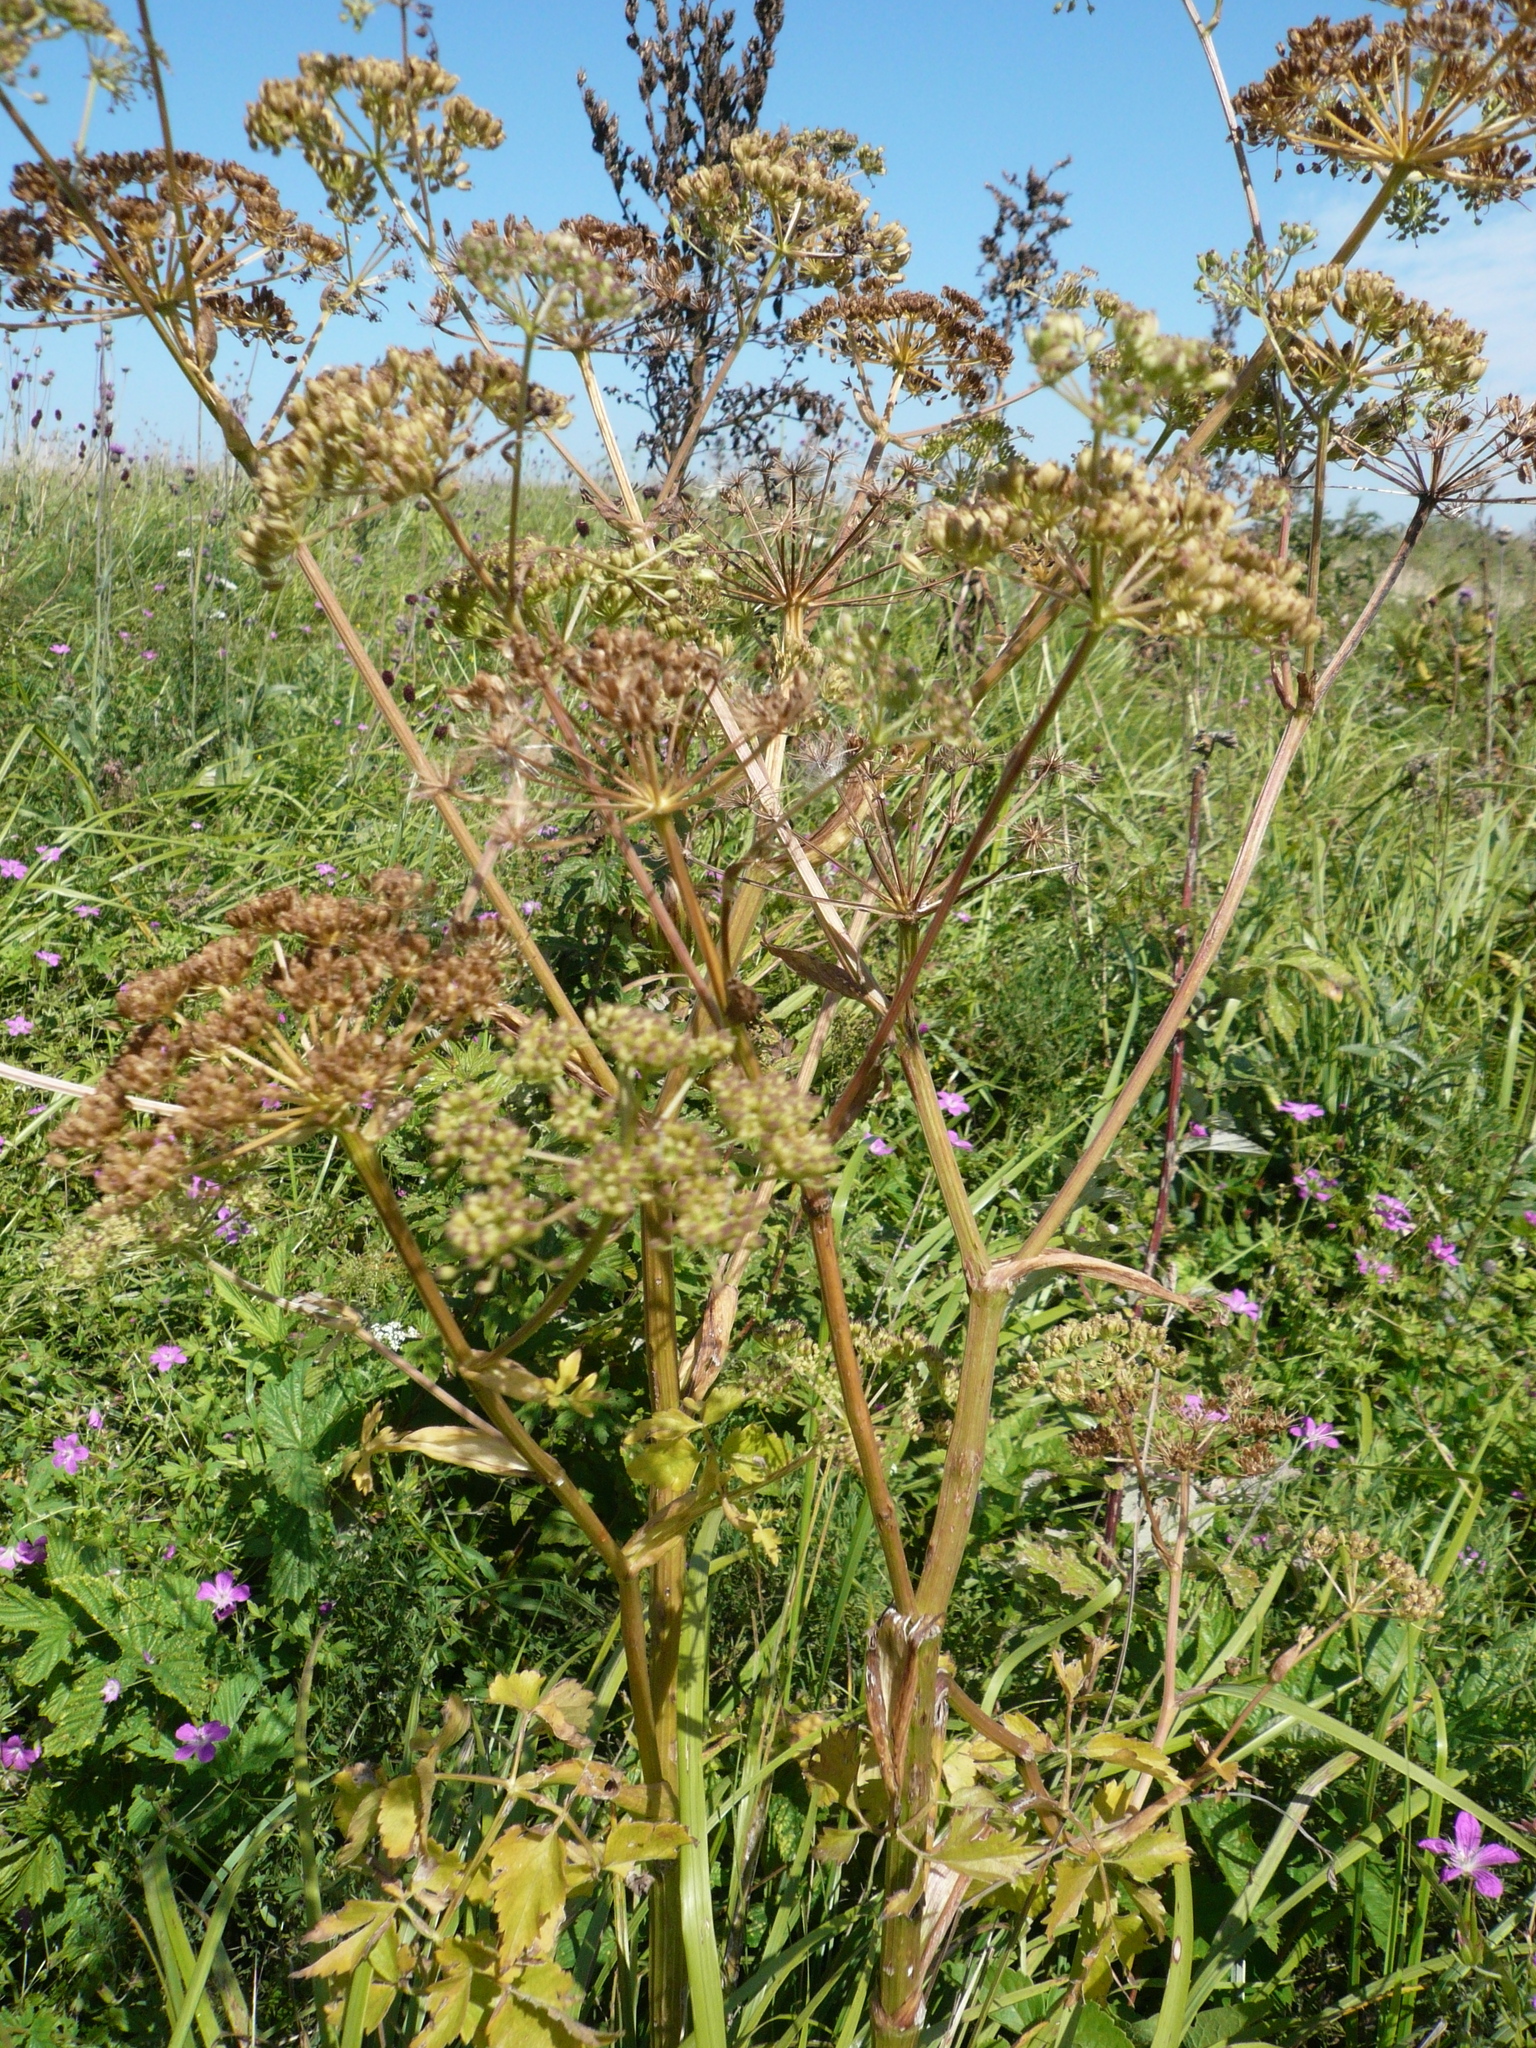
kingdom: Plantae
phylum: Tracheophyta
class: Magnoliopsida
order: Apiales
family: Apiaceae
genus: Ostericum
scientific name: Ostericum palustre
